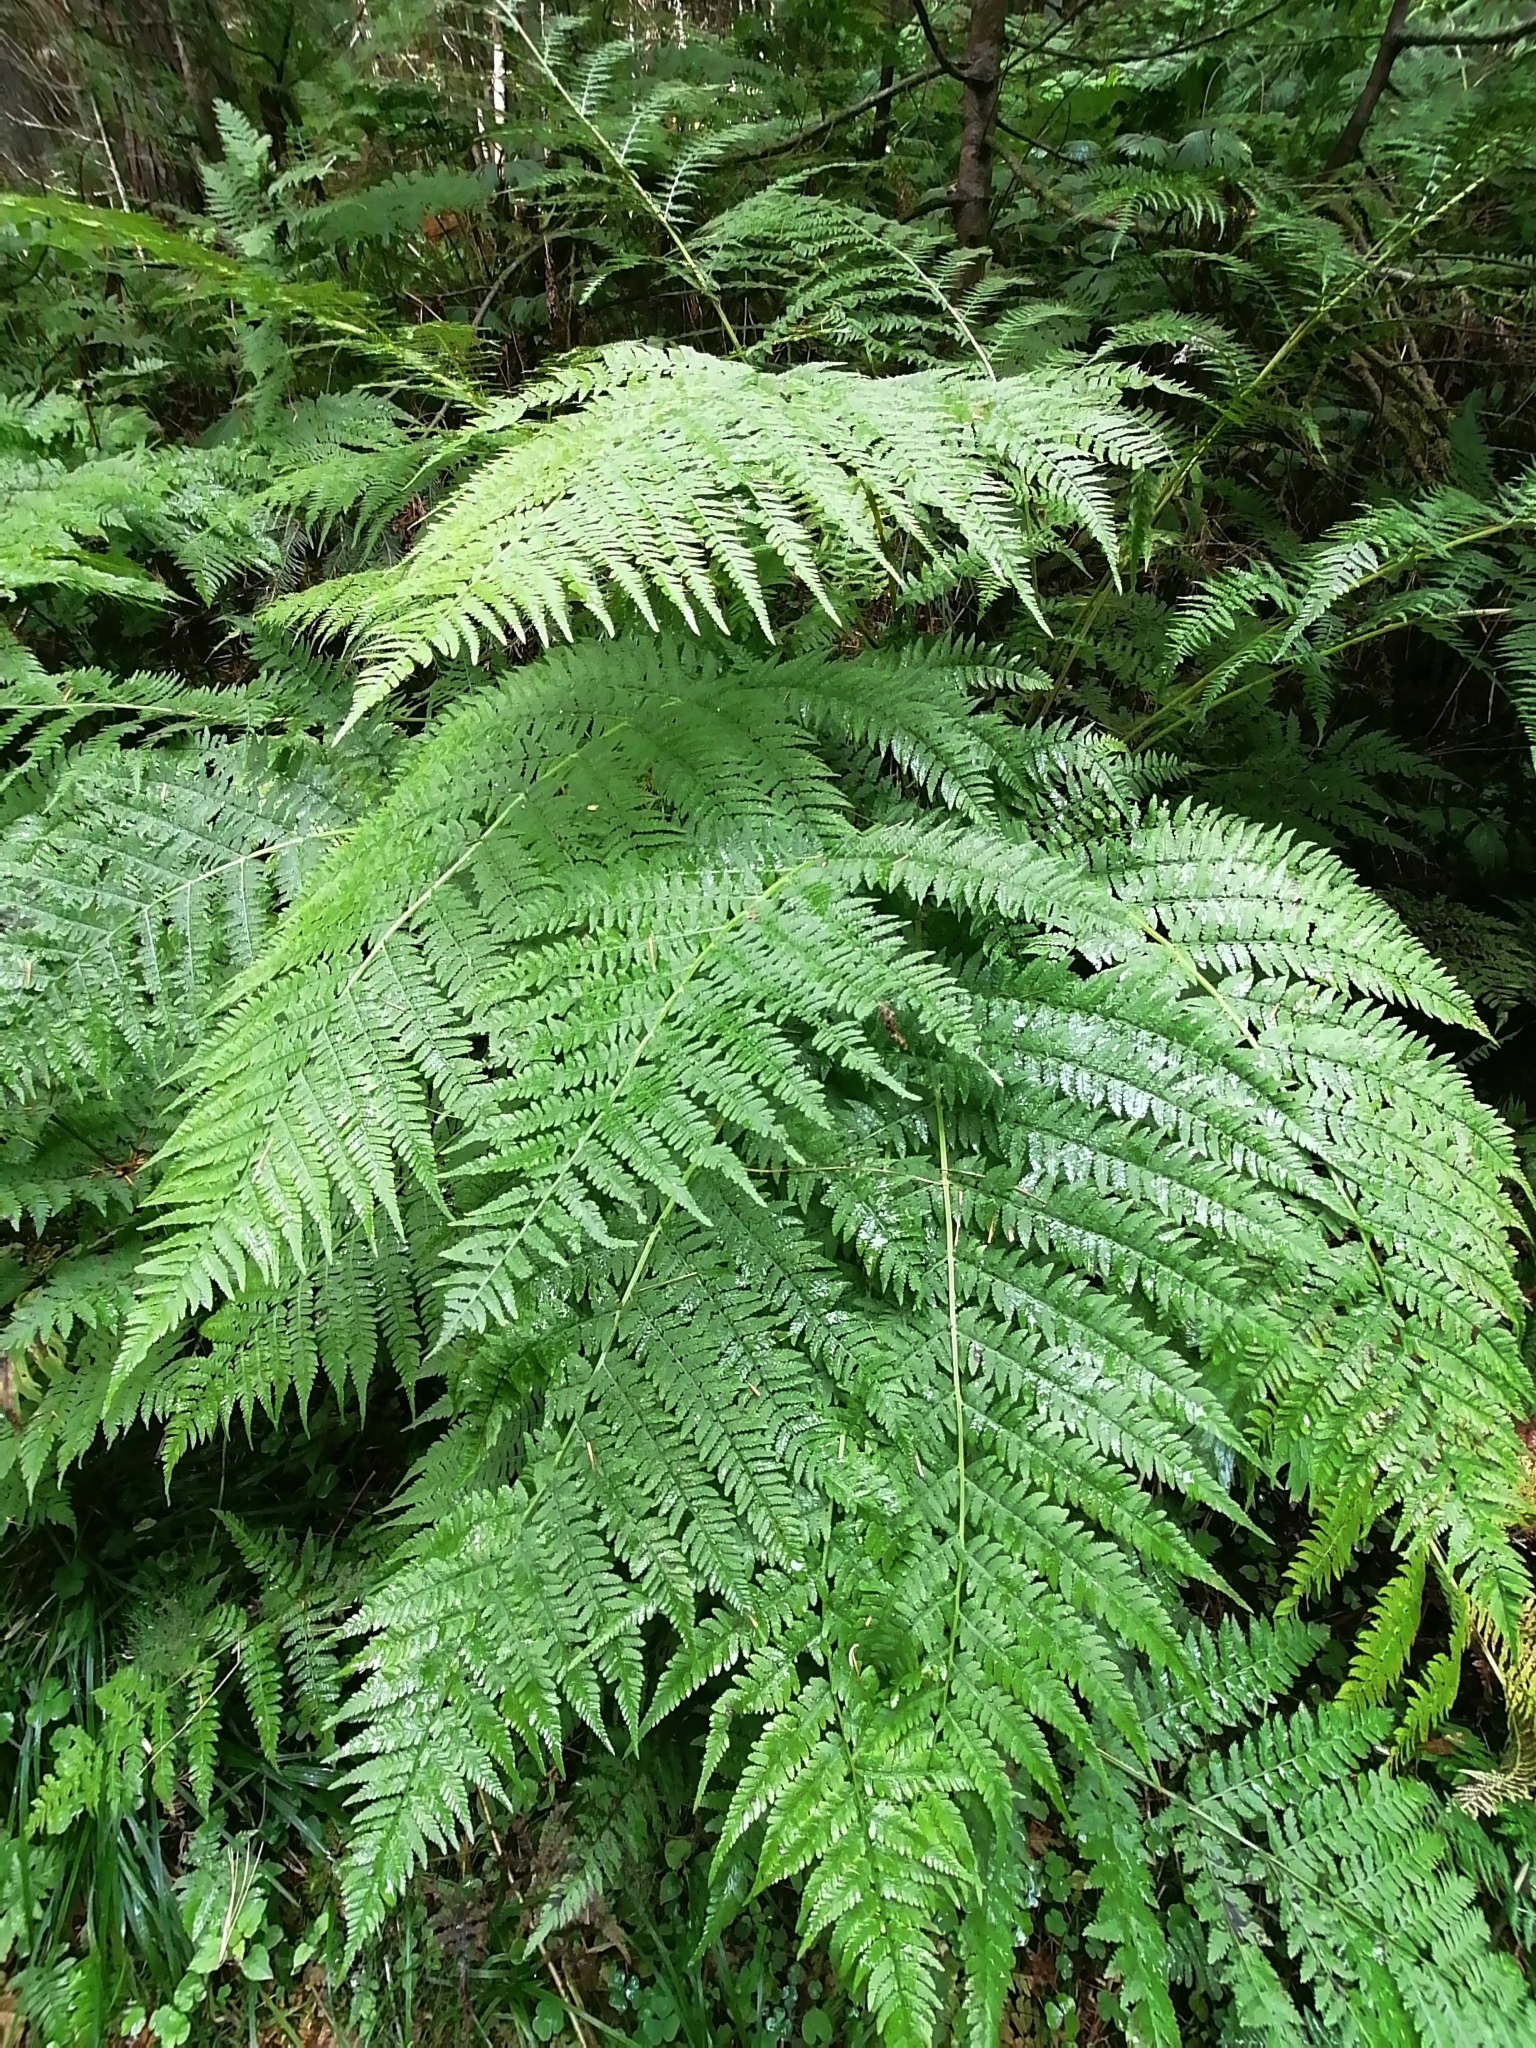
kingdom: Plantae
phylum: Tracheophyta
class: Polypodiopsida
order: Polypodiales
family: Athyriaceae
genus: Athyrium
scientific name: Athyrium filix-femina
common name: Lady fern
